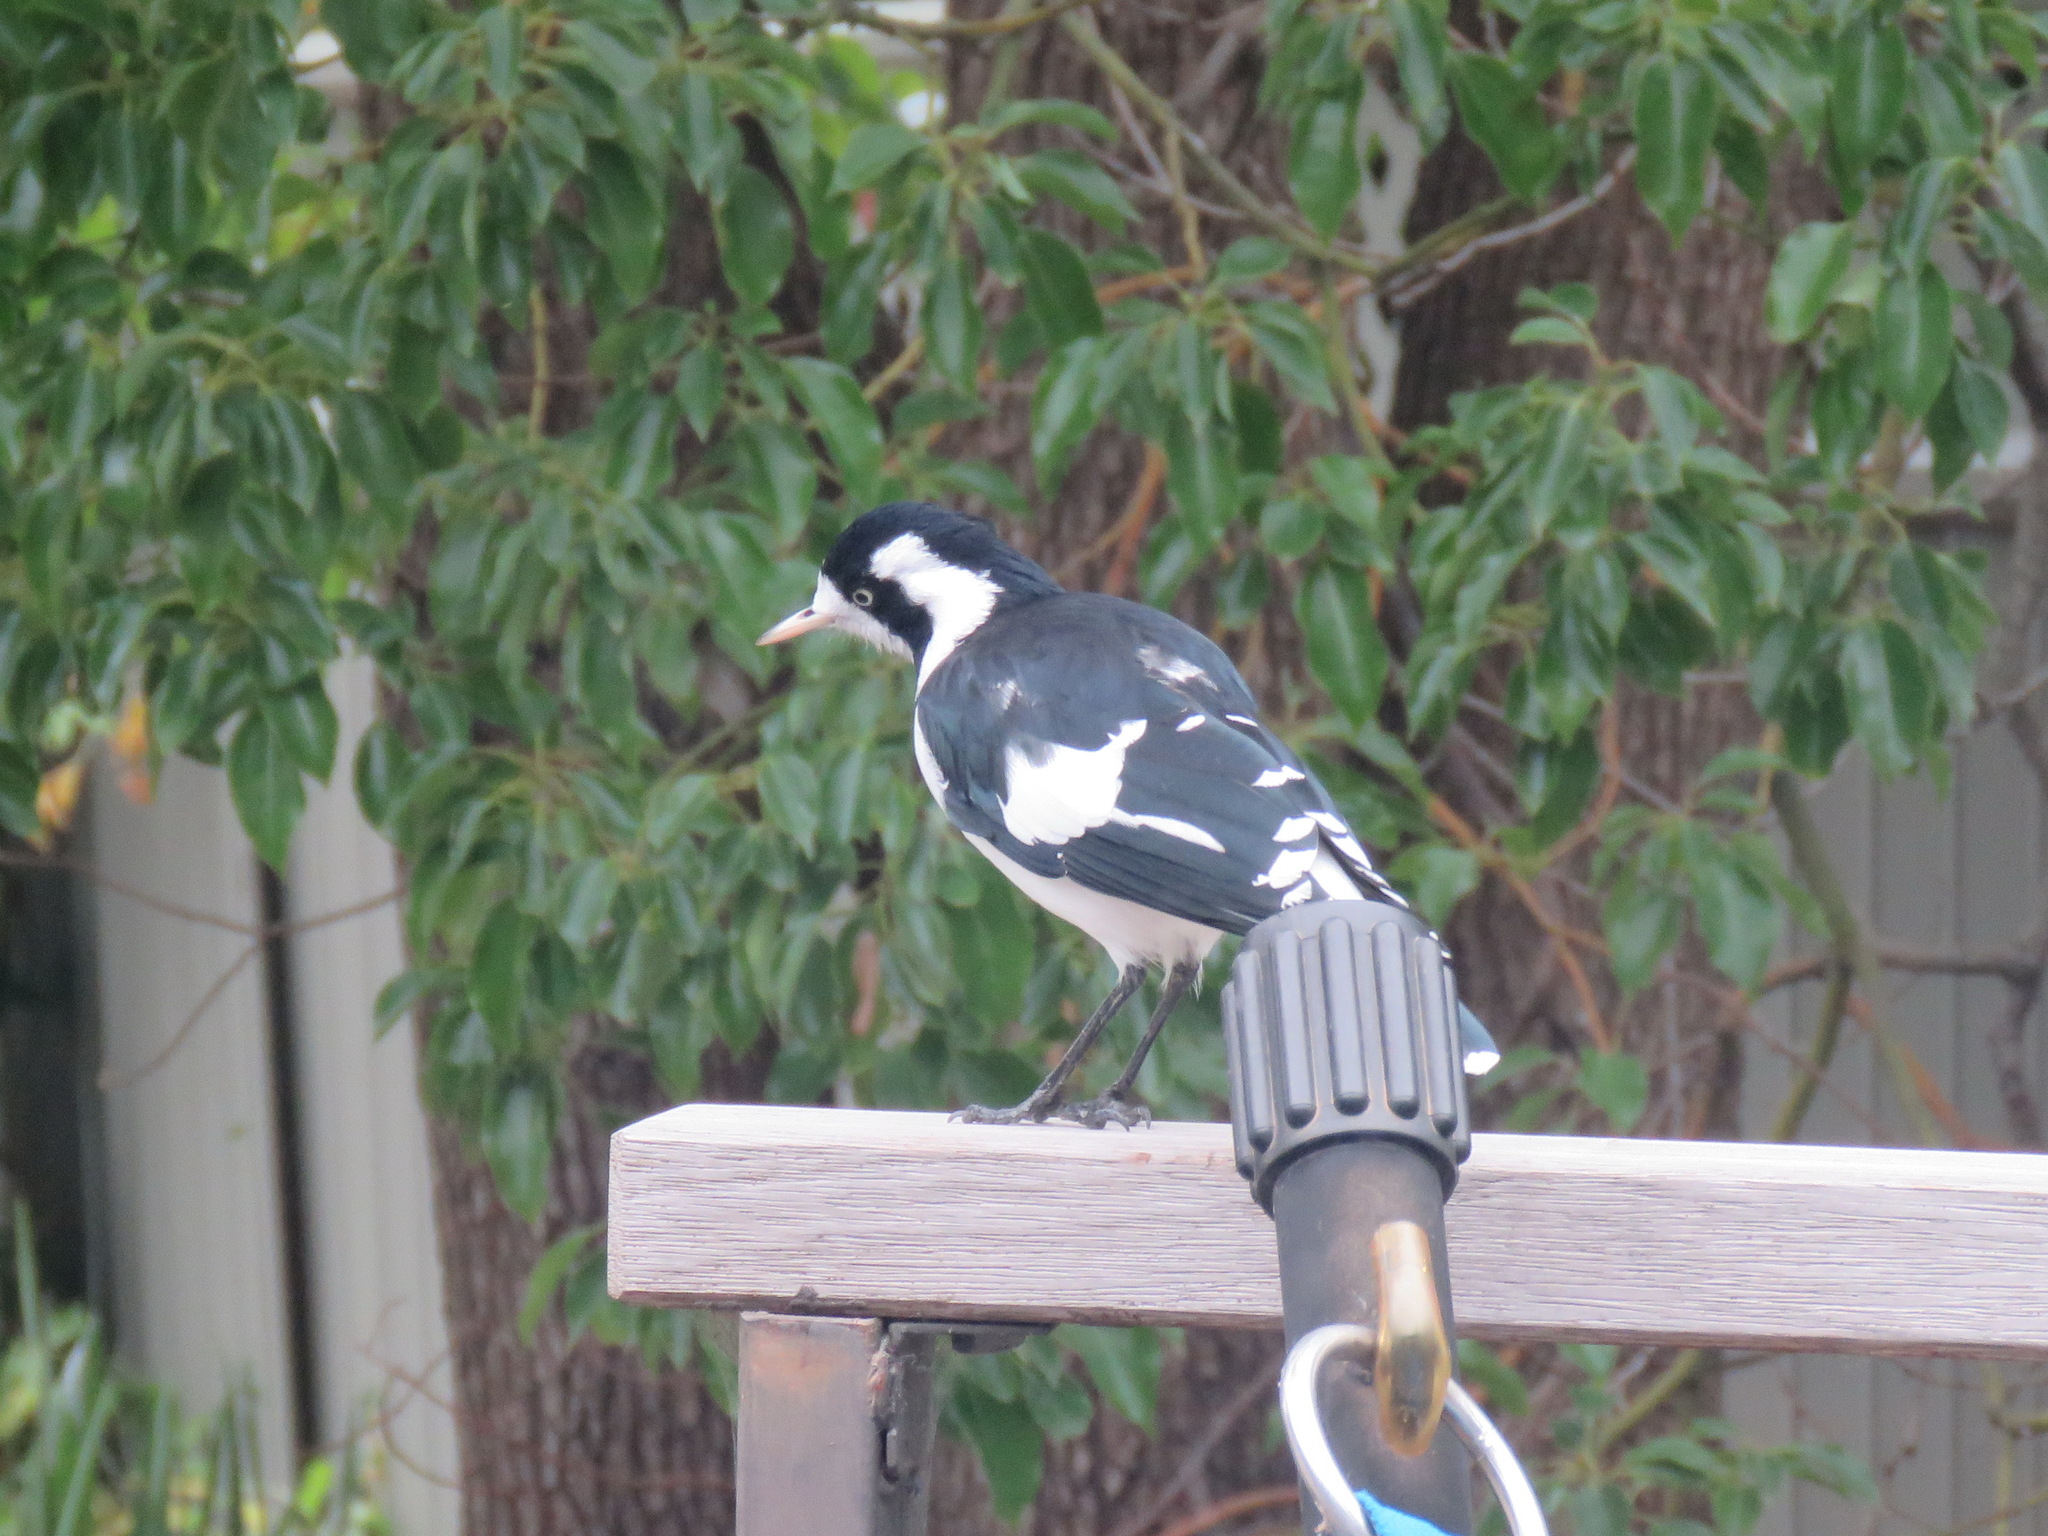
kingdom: Animalia
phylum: Chordata
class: Aves
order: Passeriformes
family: Monarchidae
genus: Grallina
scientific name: Grallina cyanoleuca
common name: Magpie-lark
